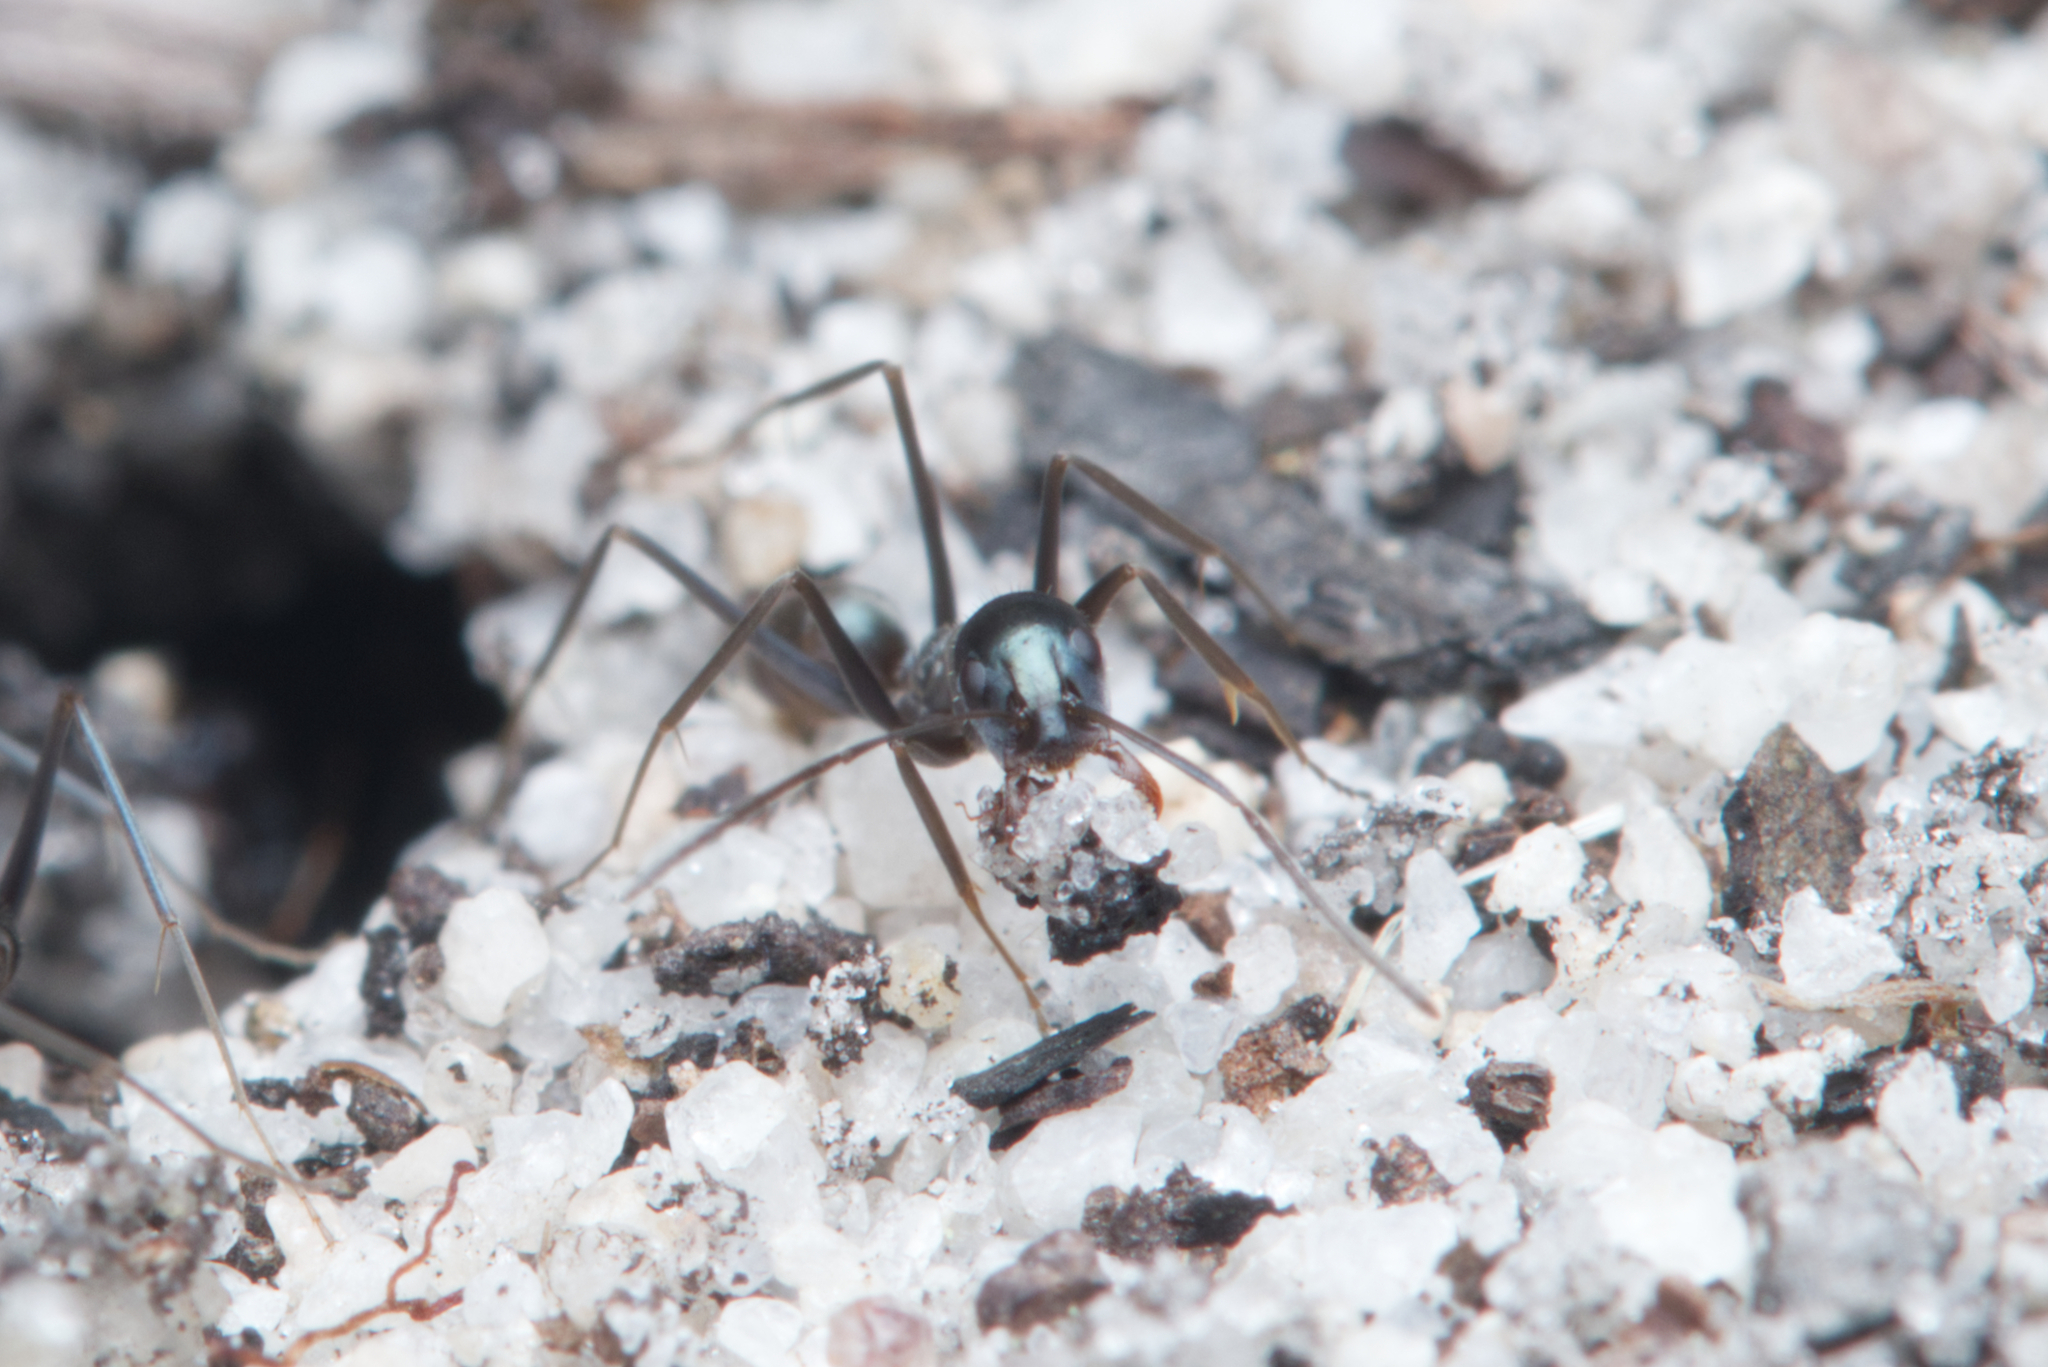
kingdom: Animalia
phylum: Arthropoda
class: Insecta
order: Hymenoptera
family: Formicidae
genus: Iridomyrmex
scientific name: Iridomyrmex bicknelli
